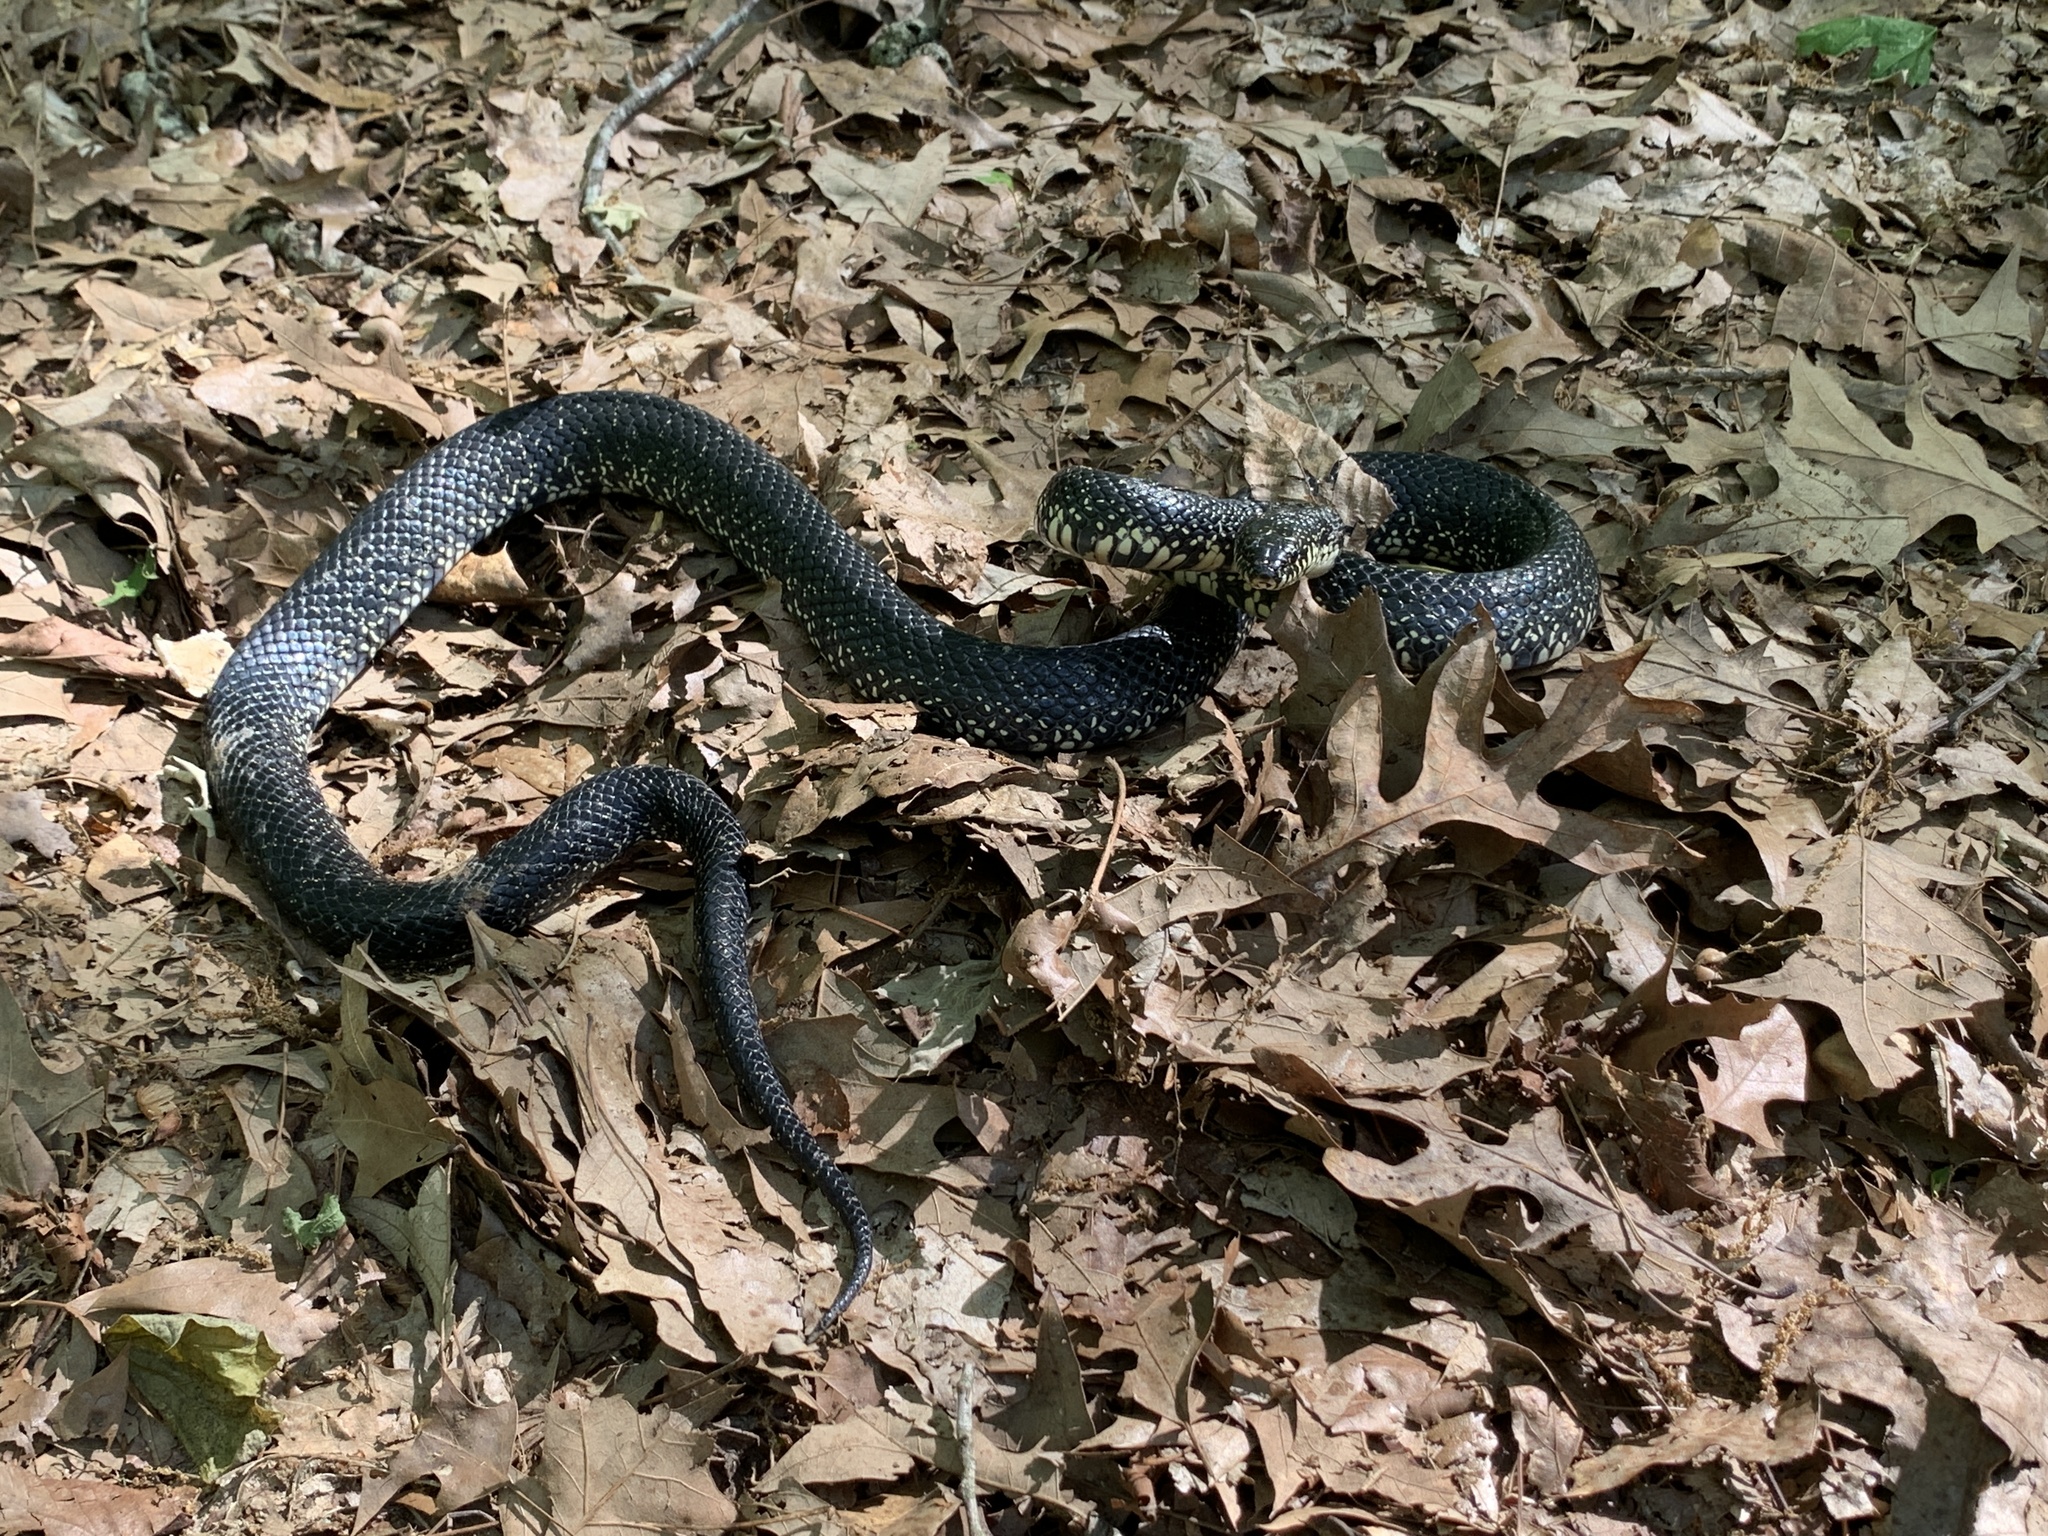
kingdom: Animalia
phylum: Chordata
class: Squamata
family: Colubridae
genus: Lampropeltis
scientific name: Lampropeltis nigra
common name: Black kingsnake
